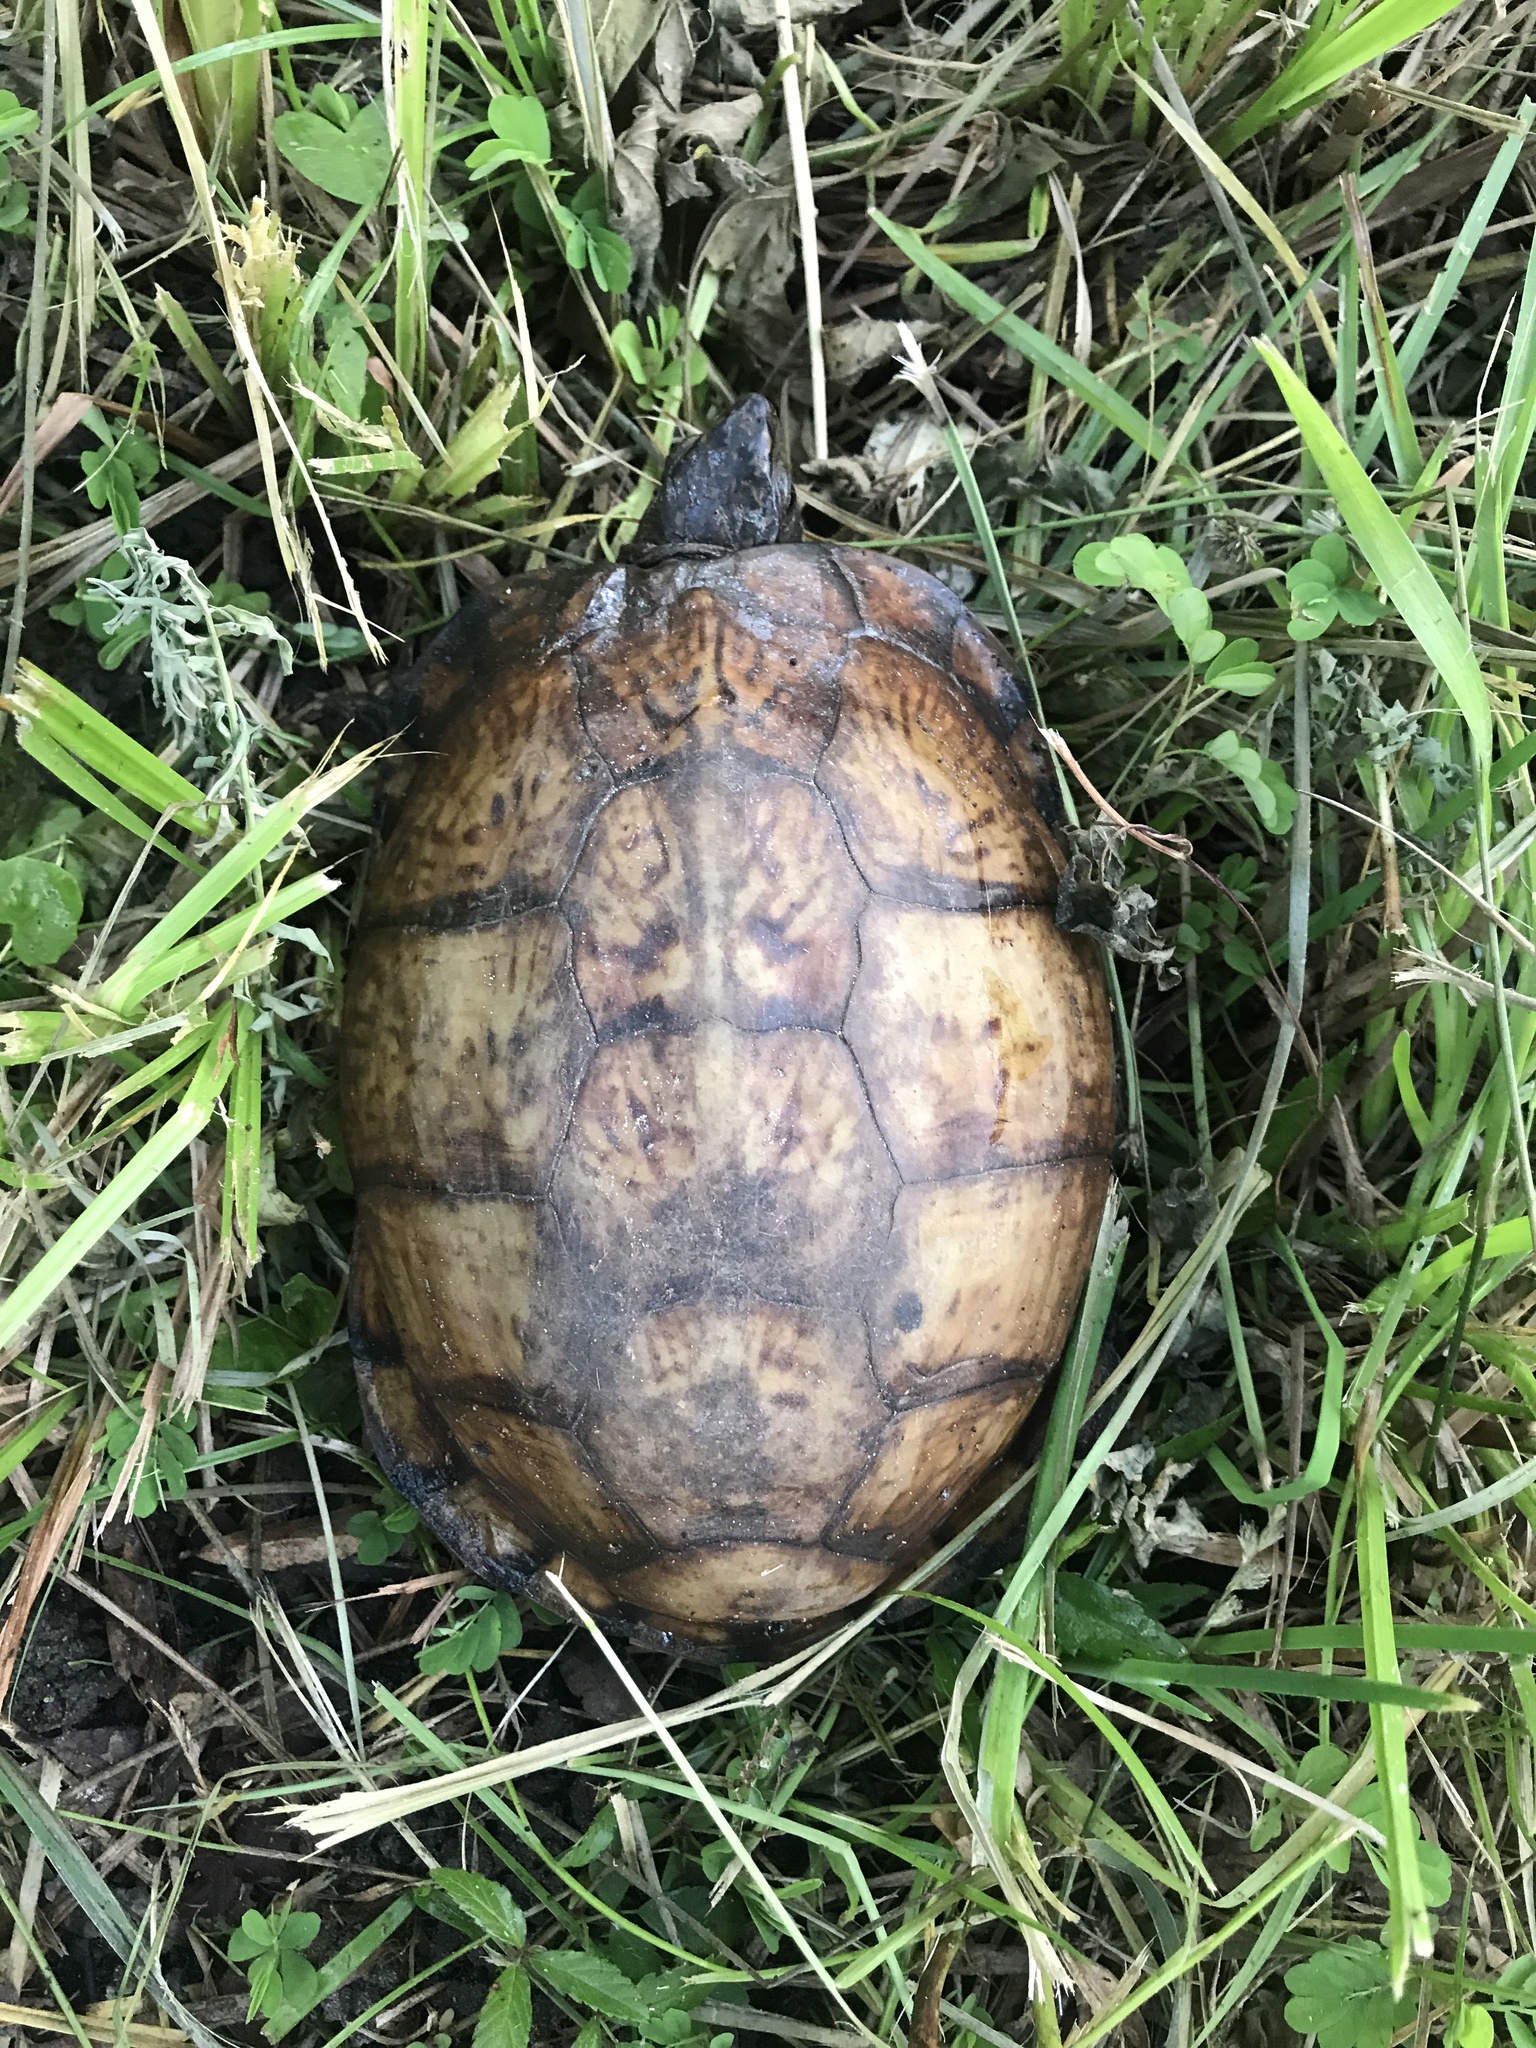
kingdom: Animalia
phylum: Chordata
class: Testudines
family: Emydidae
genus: Terrapene
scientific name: Terrapene carolina
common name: Common box turtle
